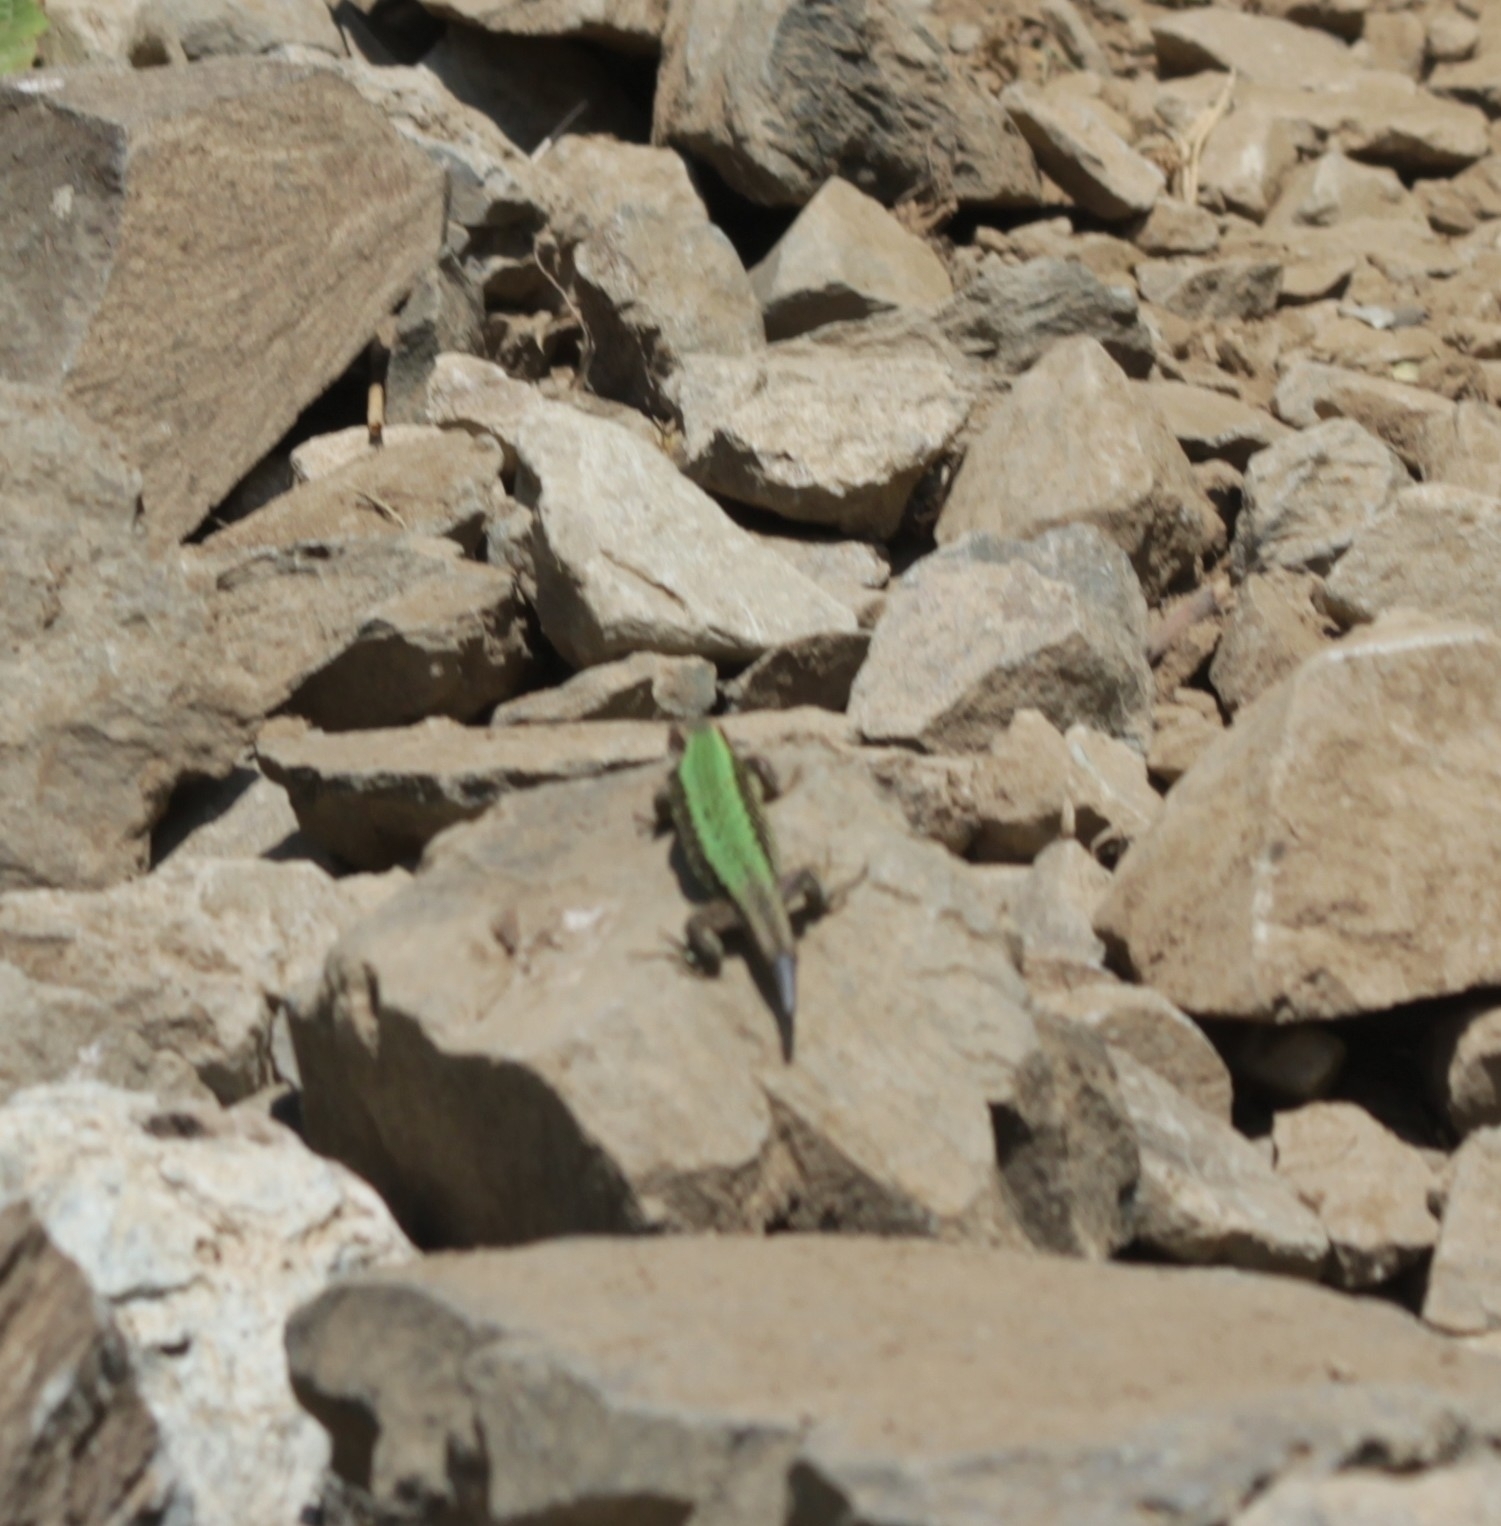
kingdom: Animalia
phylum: Chordata
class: Squamata
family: Lacertidae
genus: Darevskia
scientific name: Darevskia brauneri
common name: Brauner's rock lizard
